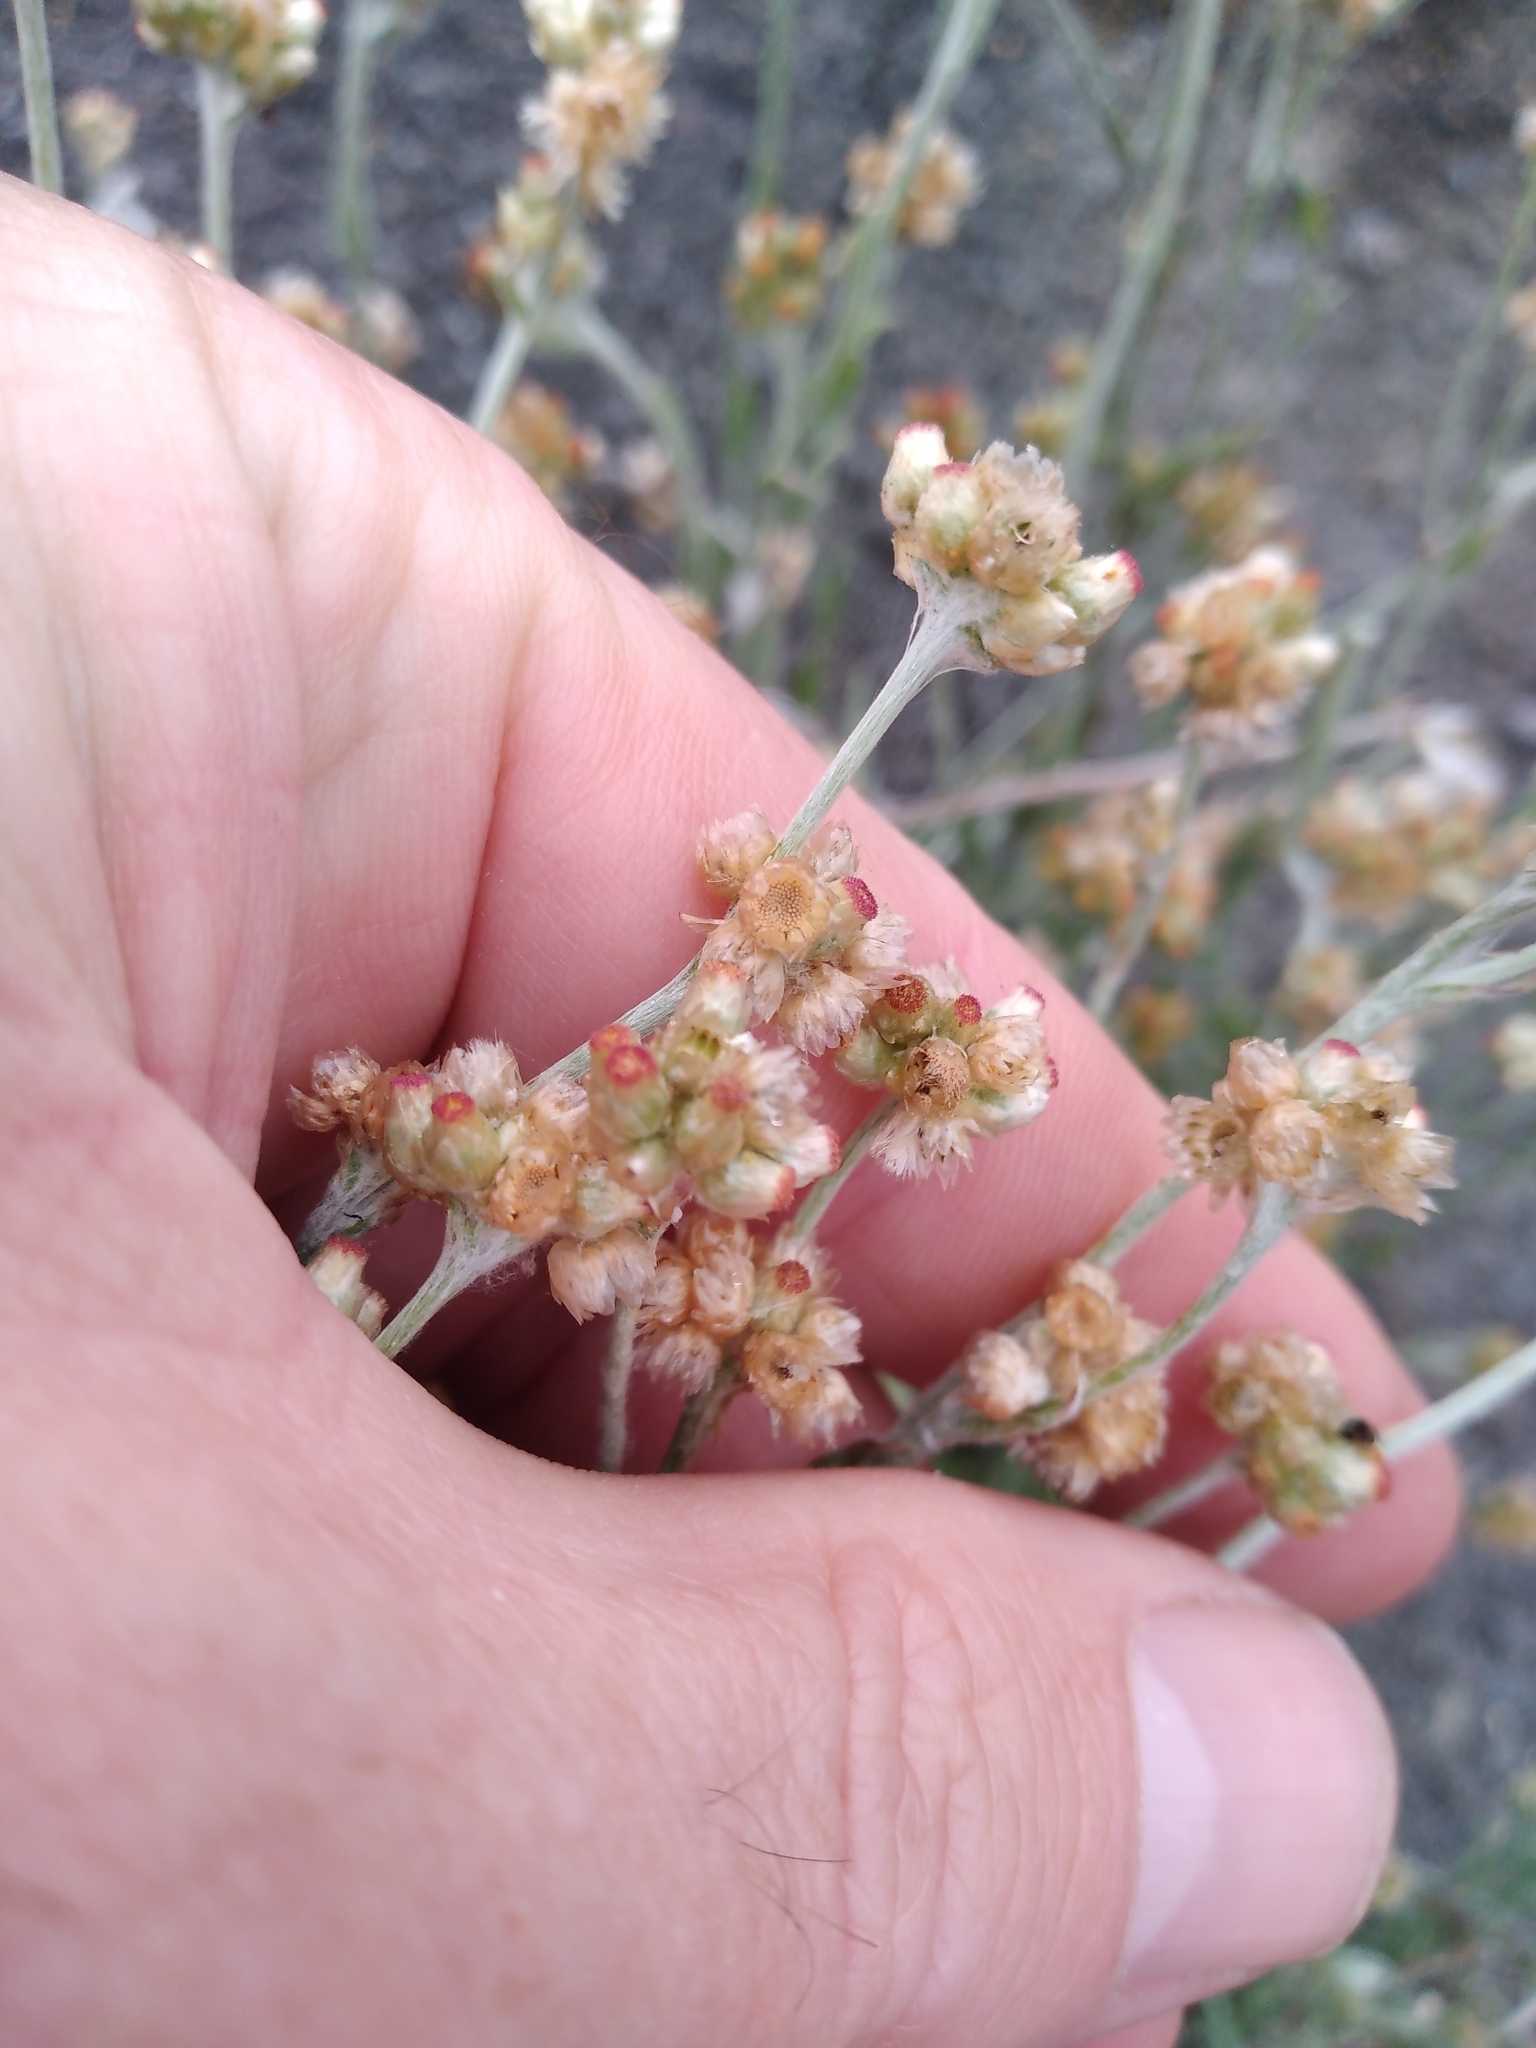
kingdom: Plantae
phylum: Tracheophyta
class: Magnoliopsida
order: Asterales
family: Asteraceae
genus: Helichrysum
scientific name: Helichrysum luteoalbum
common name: Daisy
